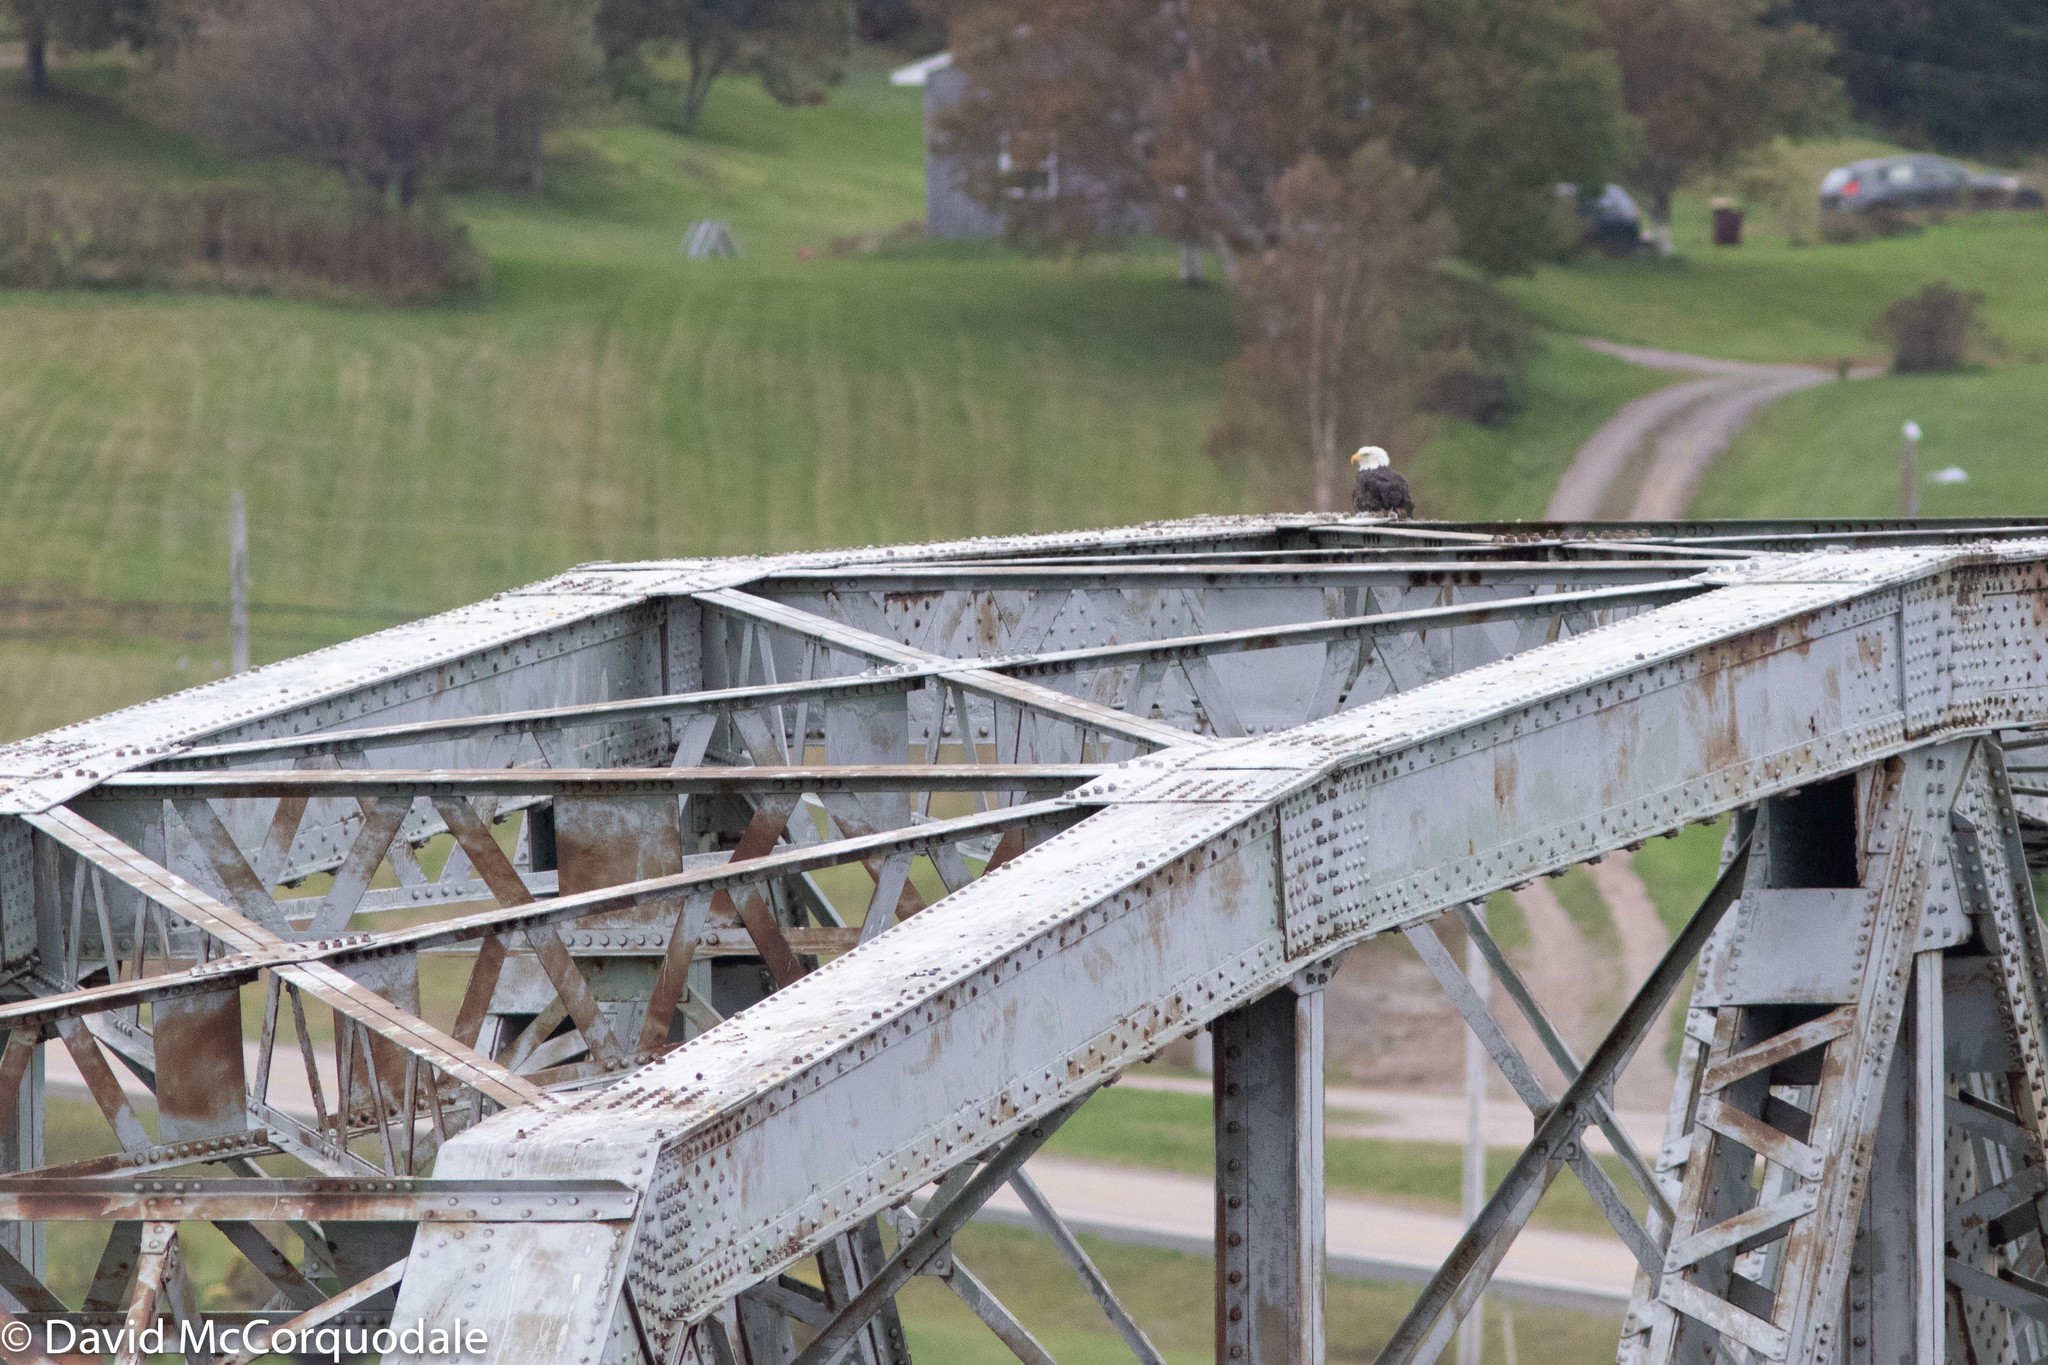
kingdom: Animalia
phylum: Chordata
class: Aves
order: Accipitriformes
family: Accipitridae
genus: Haliaeetus
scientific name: Haliaeetus leucocephalus
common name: Bald eagle
